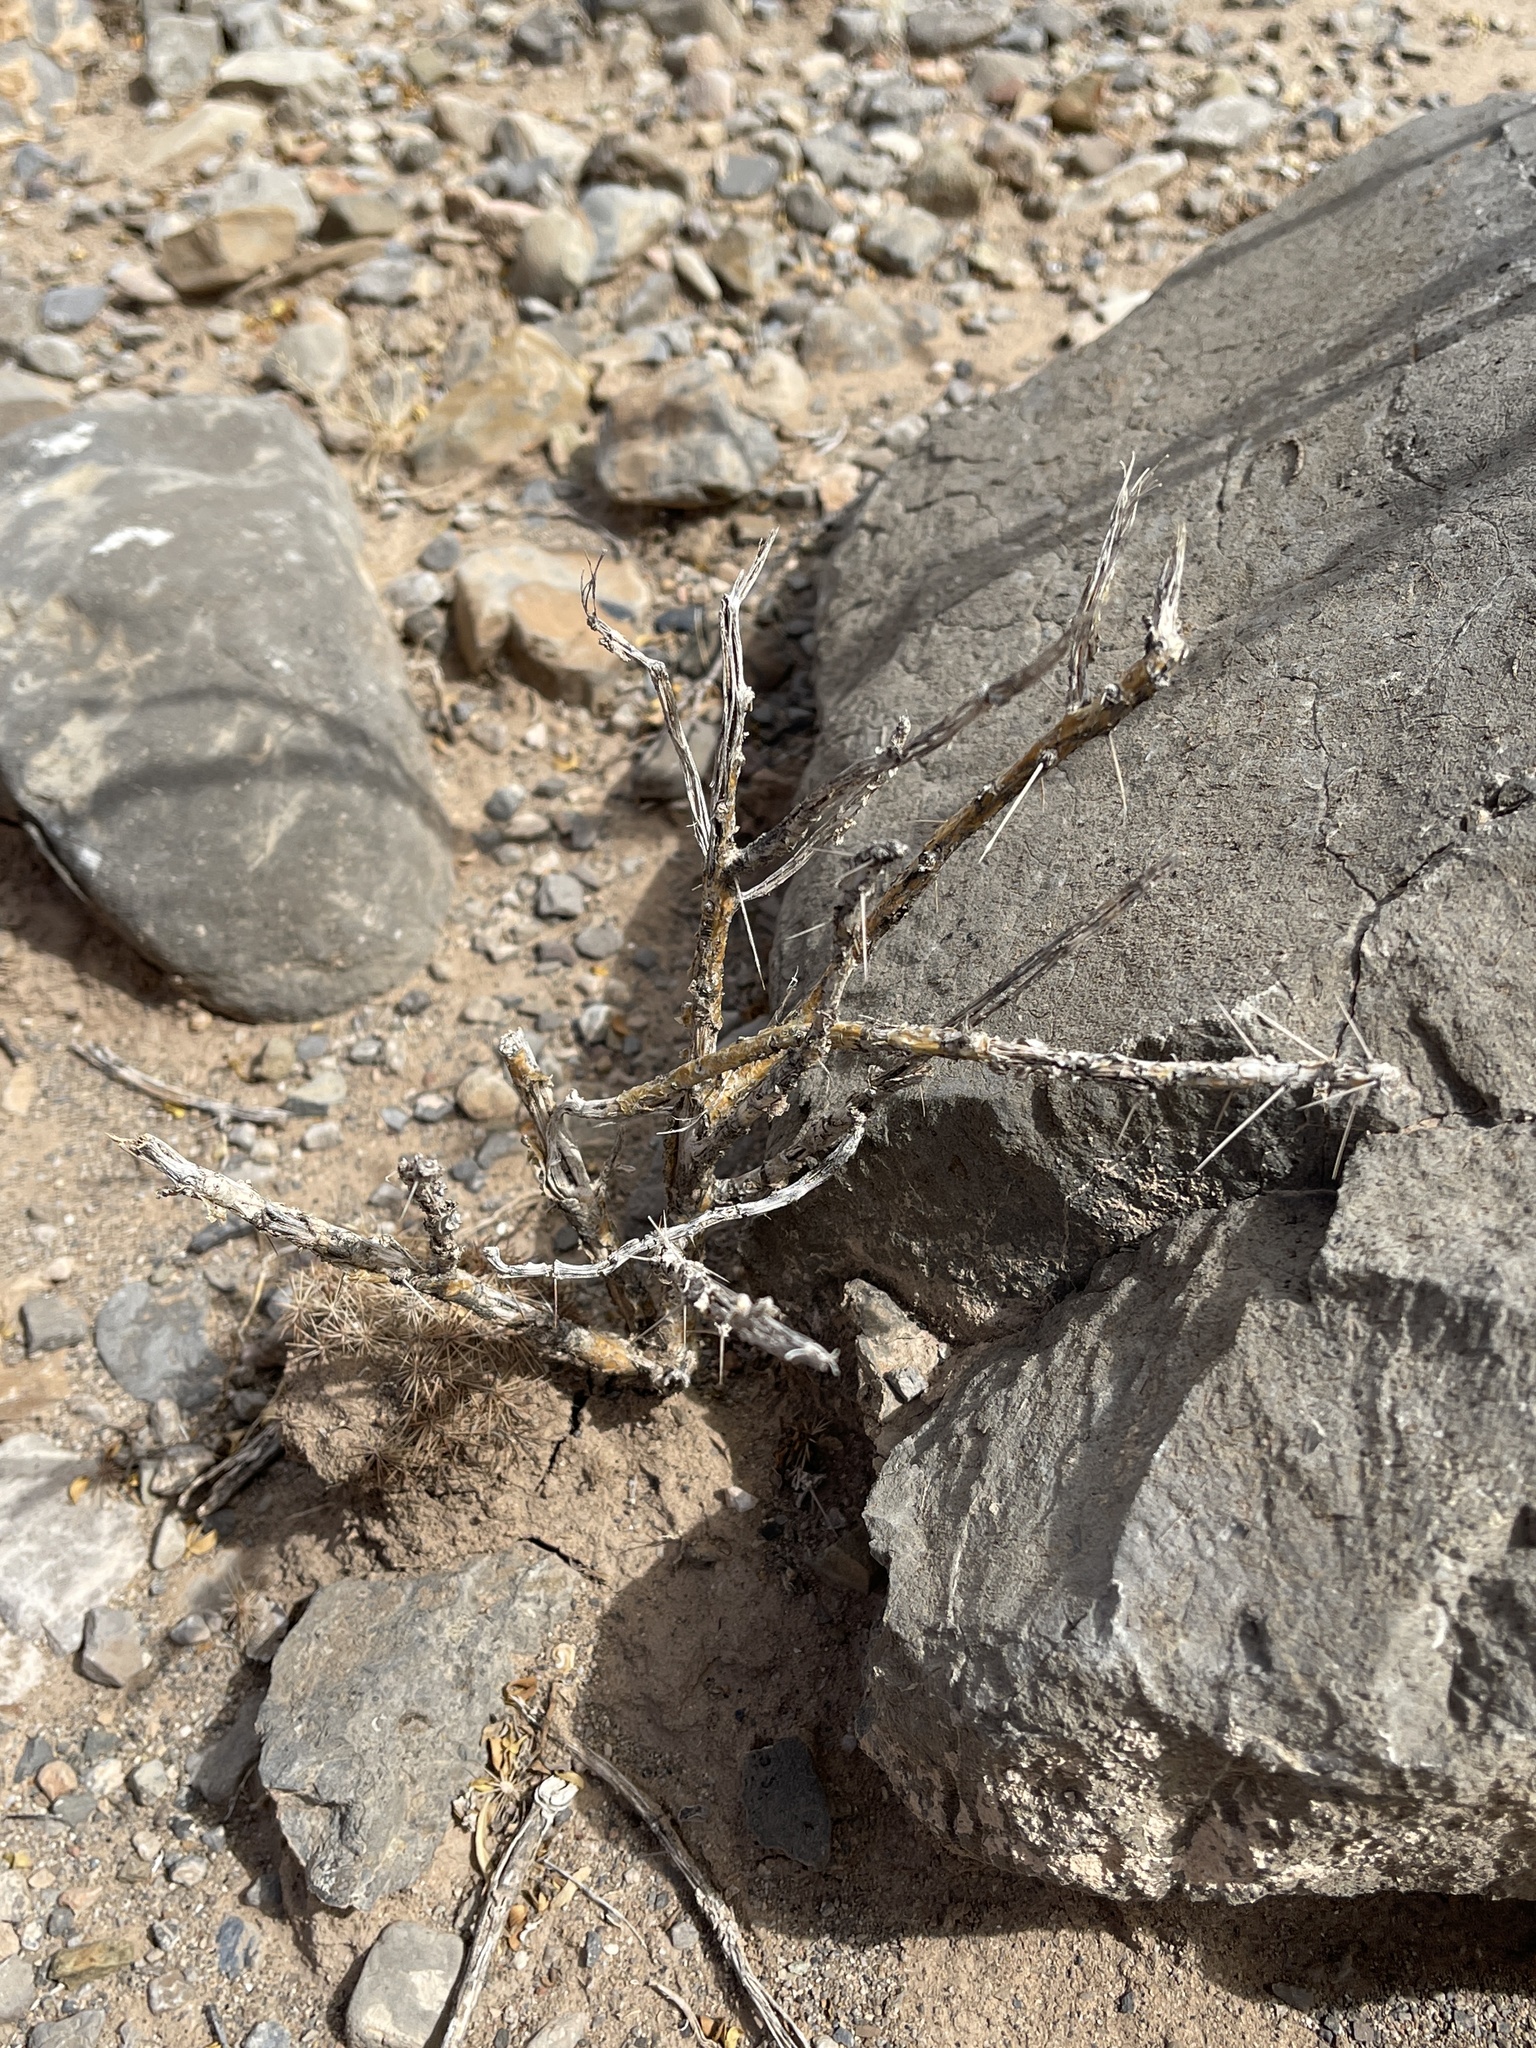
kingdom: Plantae
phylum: Tracheophyta
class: Magnoliopsida
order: Caryophyllales
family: Cactaceae
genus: Cylindropuntia
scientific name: Cylindropuntia leptocaulis
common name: Christmas cactus
